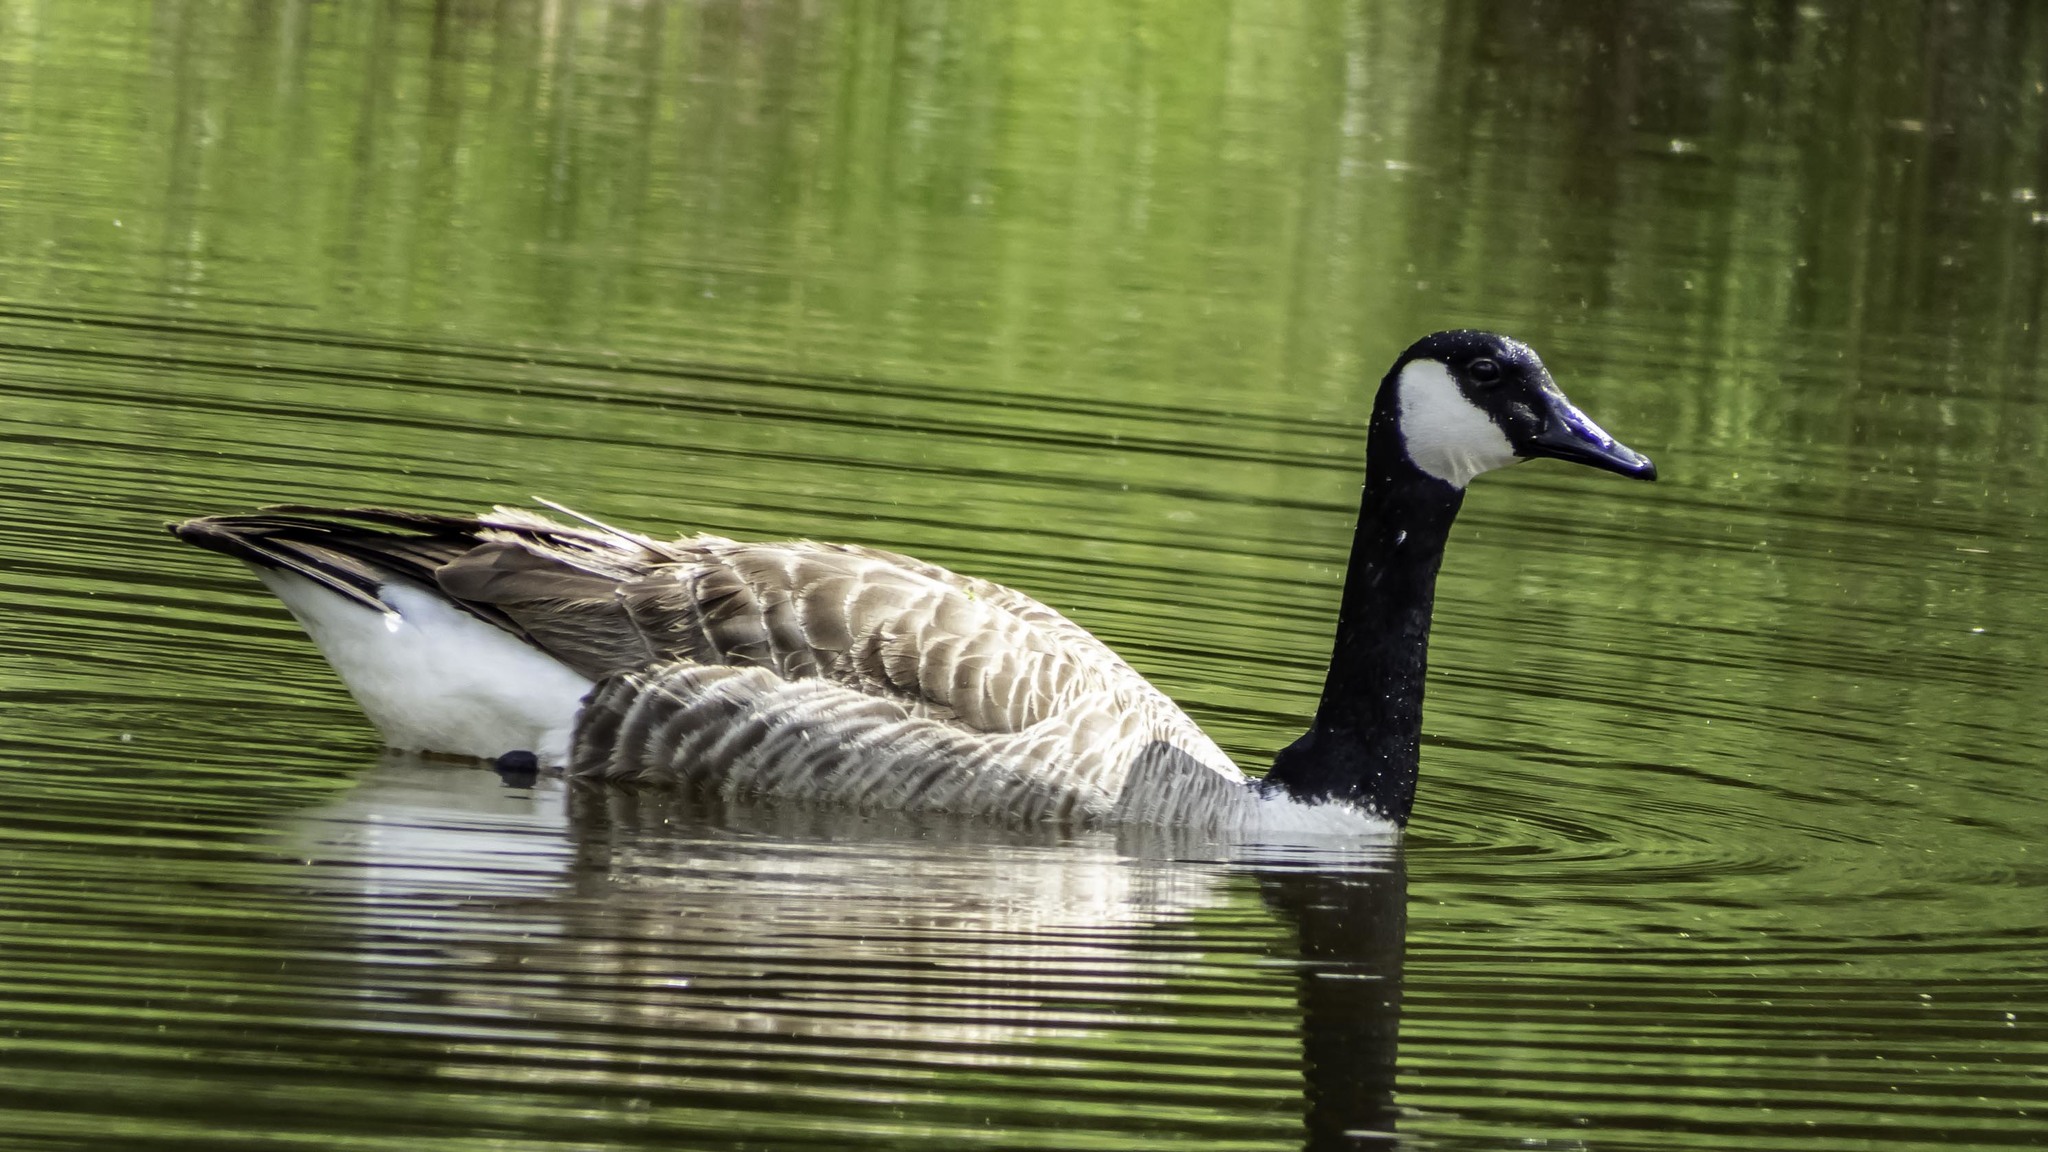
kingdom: Animalia
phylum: Chordata
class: Aves
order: Anseriformes
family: Anatidae
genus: Branta
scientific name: Branta canadensis
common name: Canada goose
